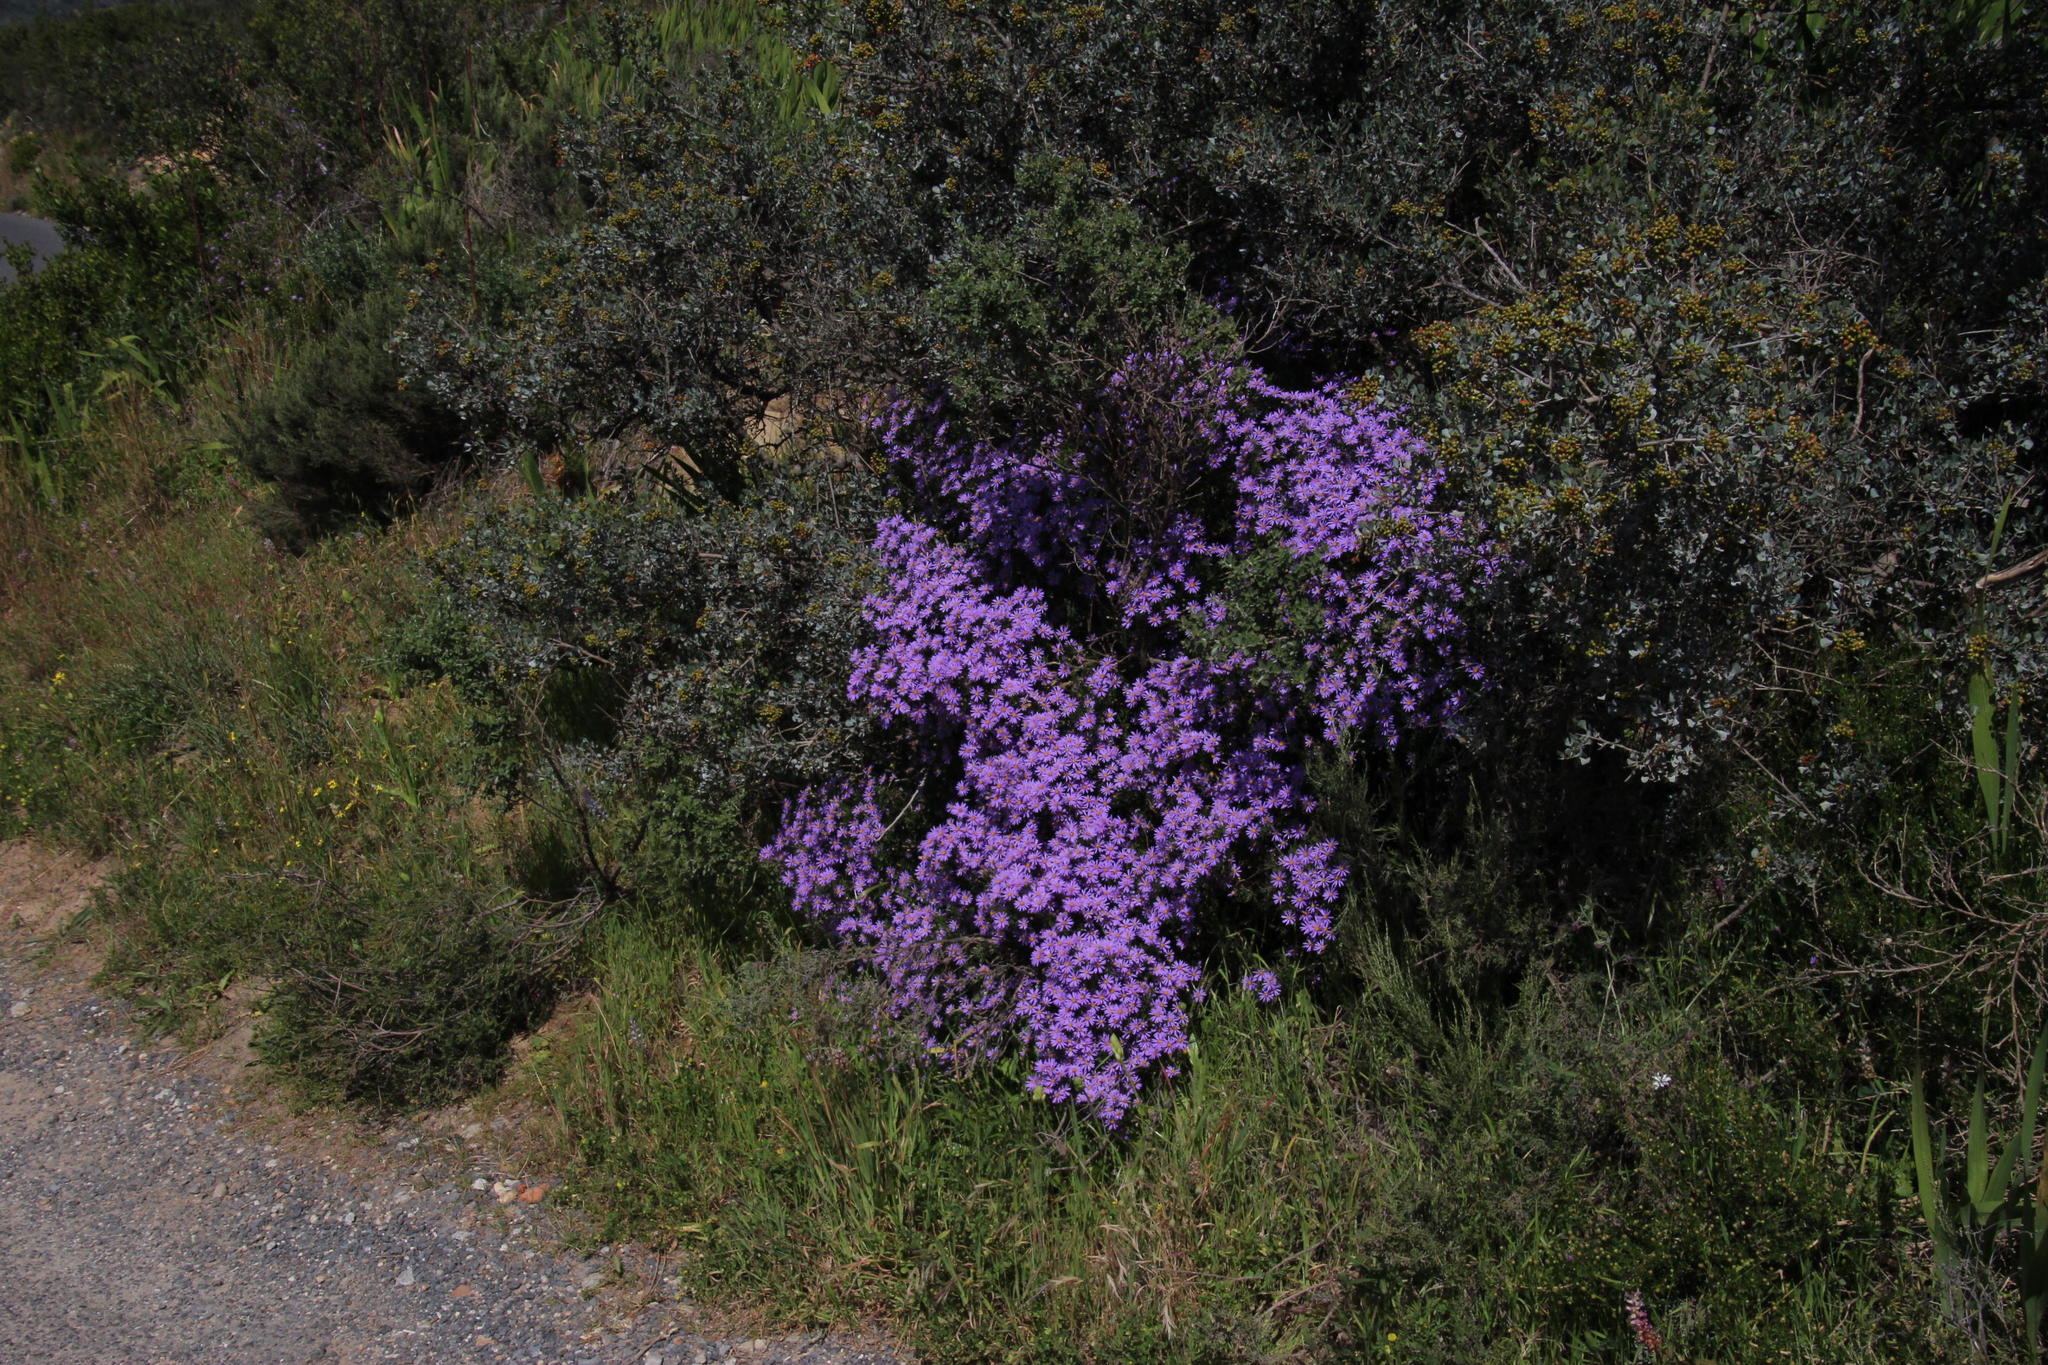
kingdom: Plantae
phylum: Tracheophyta
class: Magnoliopsida
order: Asterales
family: Asteraceae
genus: Felicia
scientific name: Felicia fruticosa
